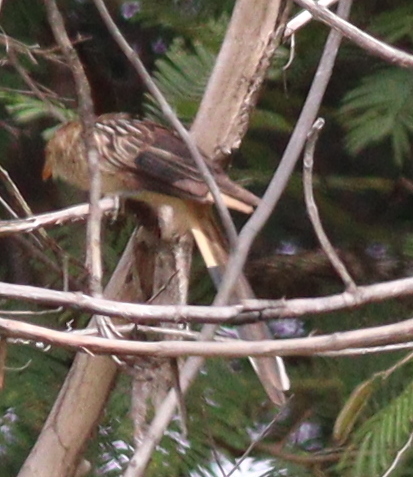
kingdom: Animalia
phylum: Chordata
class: Aves
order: Cuculiformes
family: Cuculidae
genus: Guira
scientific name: Guira guira
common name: Guira cuckoo
